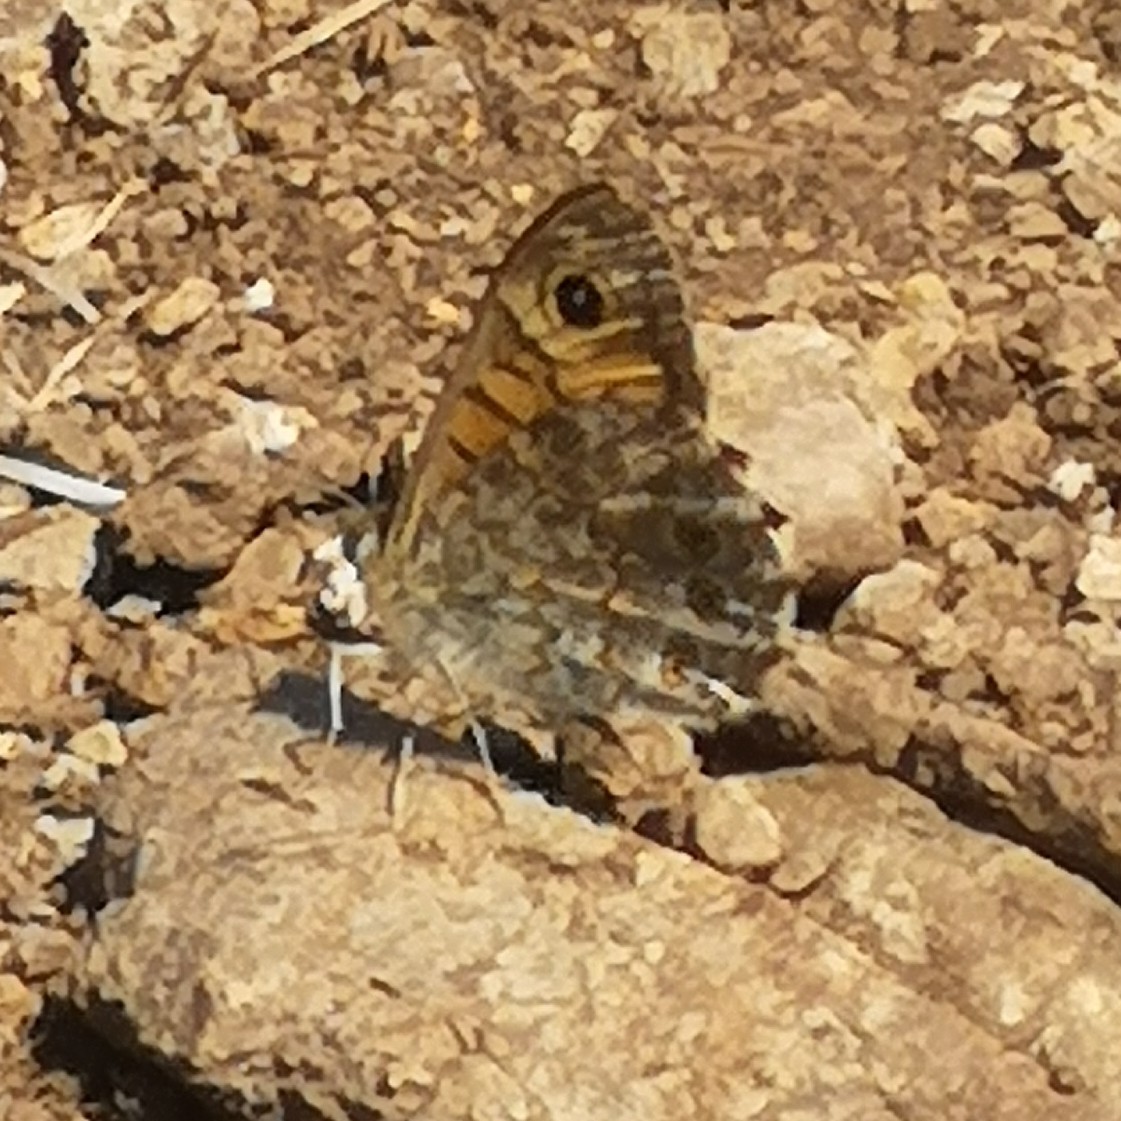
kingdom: Animalia
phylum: Arthropoda
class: Insecta
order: Lepidoptera
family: Nymphalidae
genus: Pararge
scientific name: Pararge Lasiommata megera
